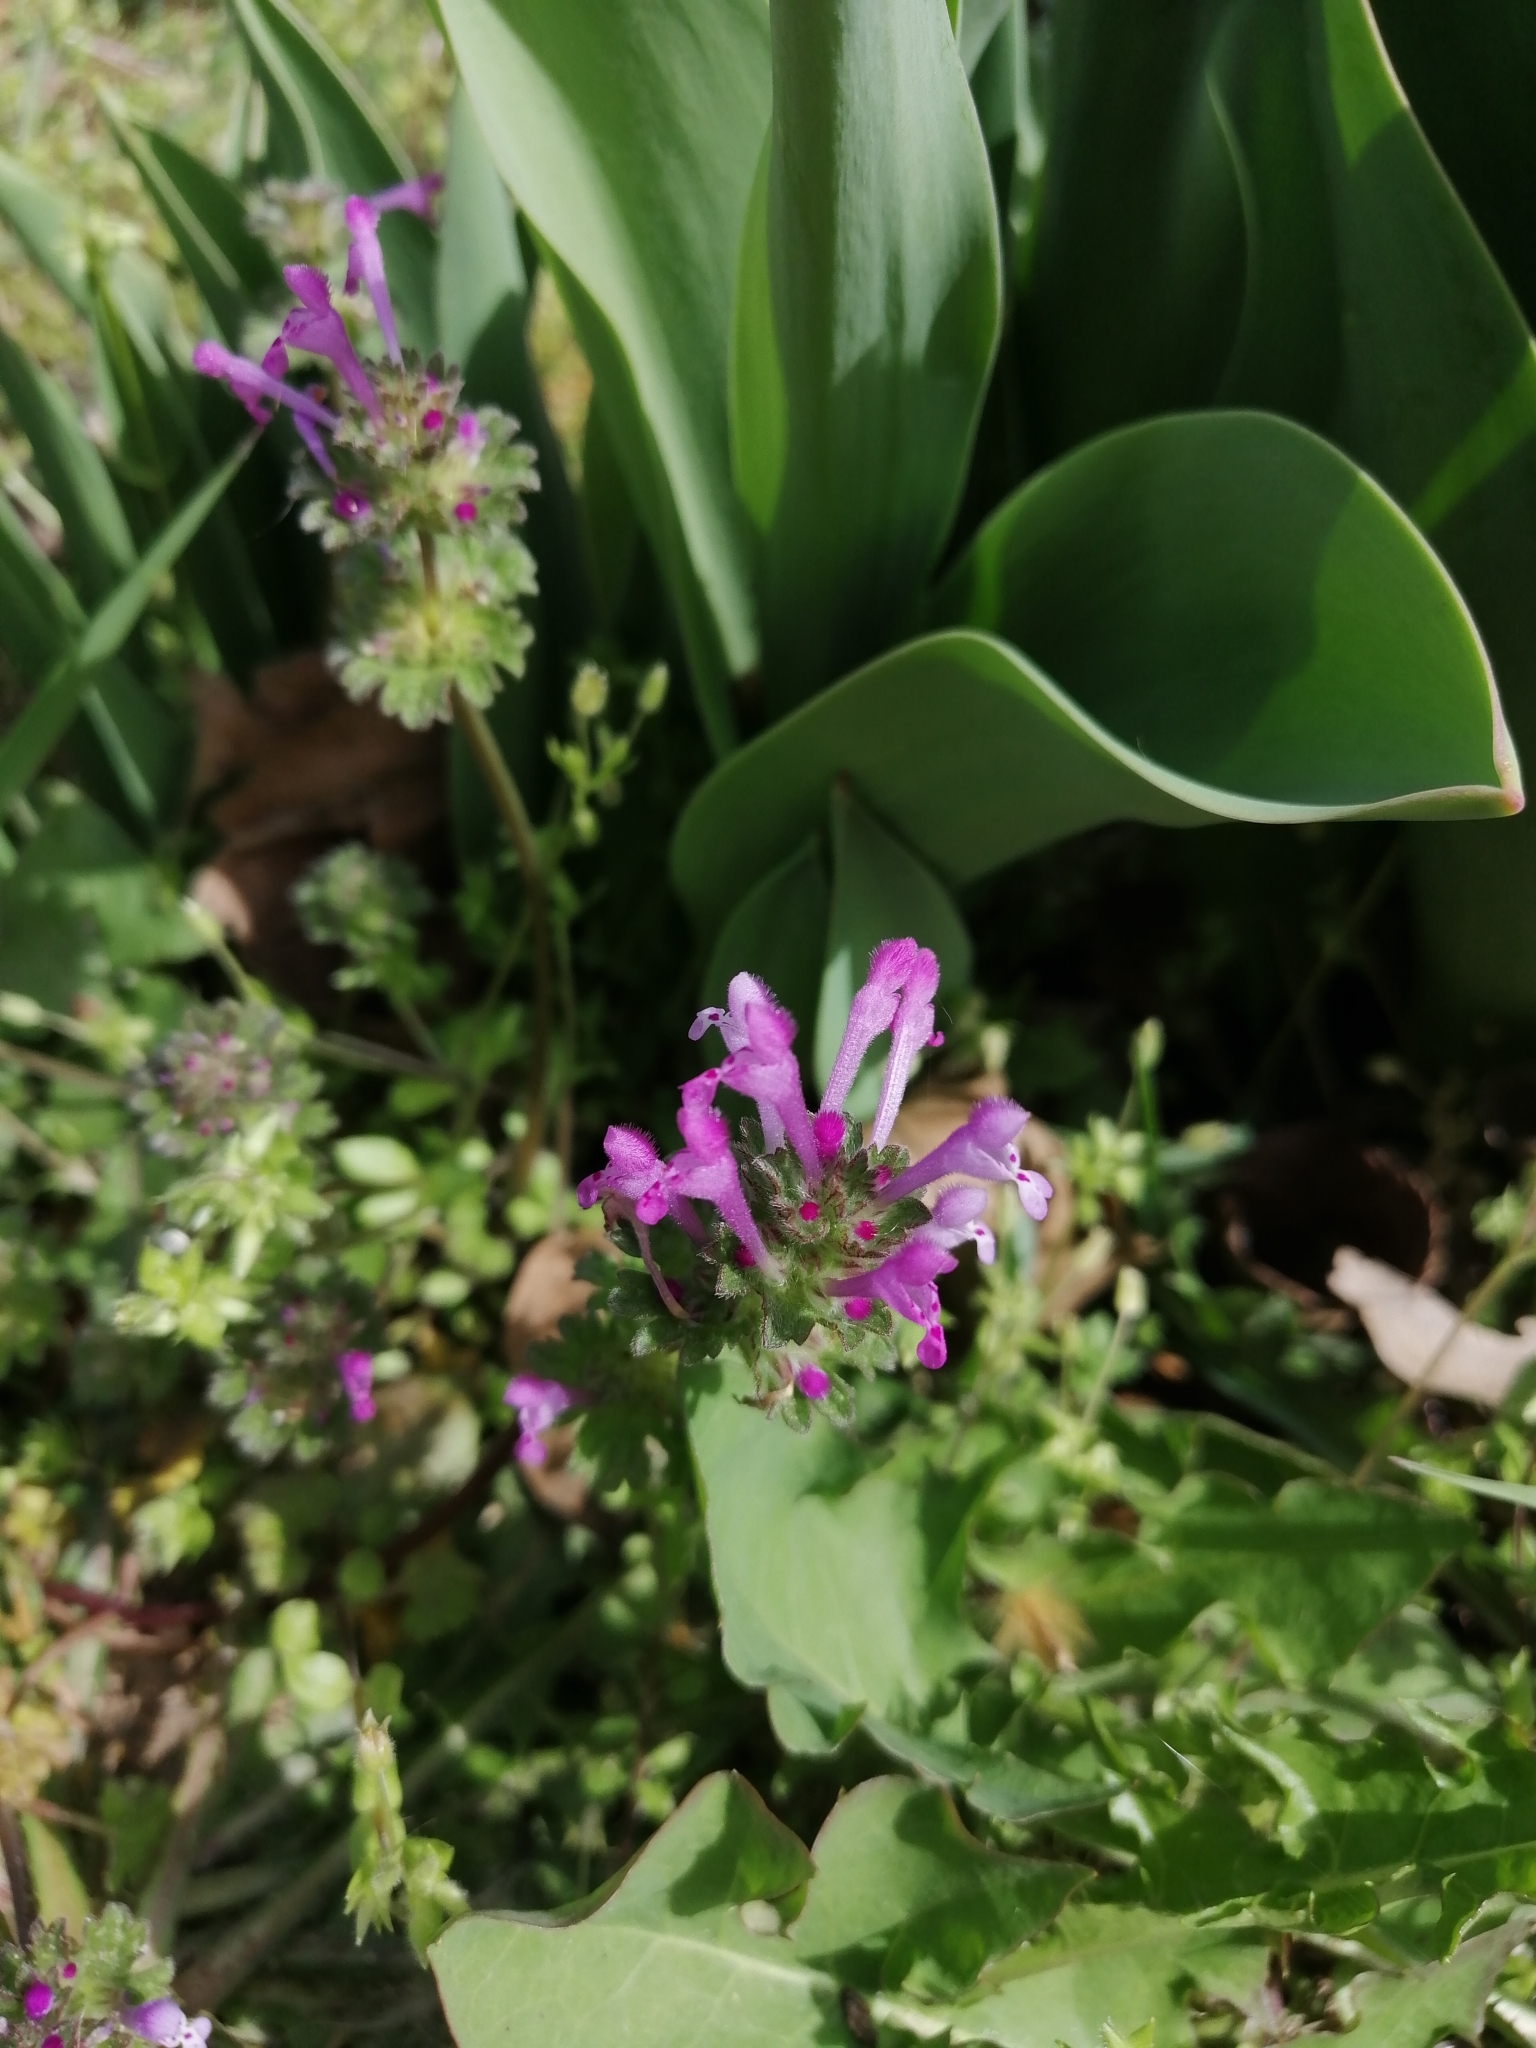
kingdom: Plantae
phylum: Tracheophyta
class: Magnoliopsida
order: Lamiales
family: Lamiaceae
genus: Lamium
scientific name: Lamium amplexicaule
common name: Henbit dead-nettle
